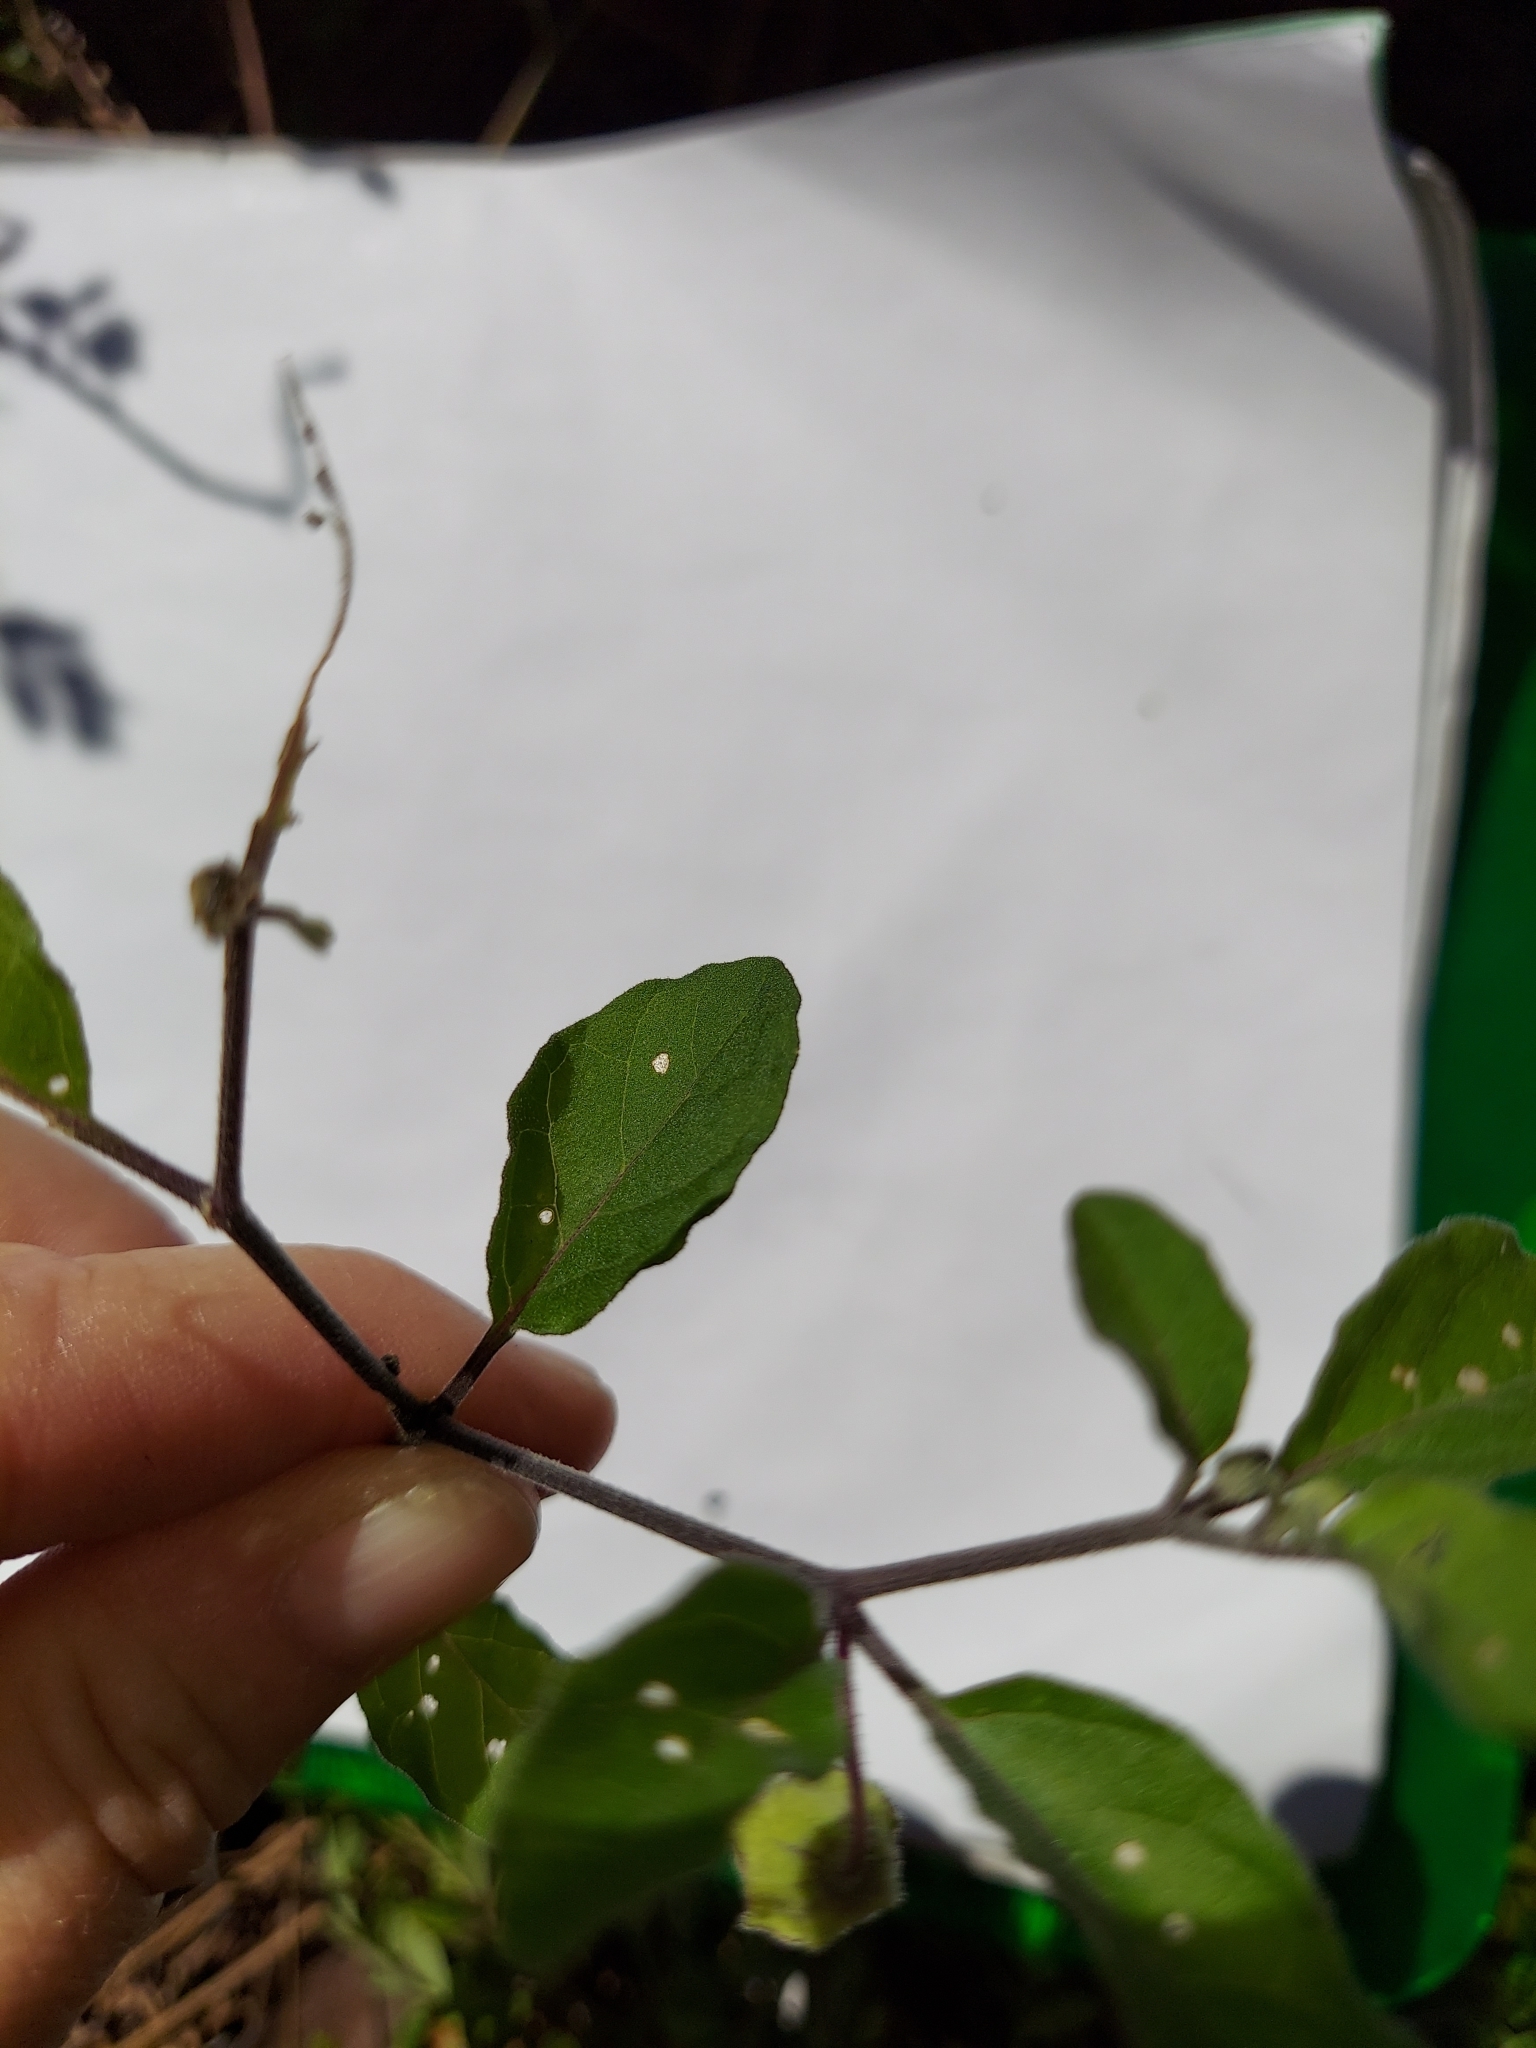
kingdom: Plantae
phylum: Tracheophyta
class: Magnoliopsida
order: Solanales
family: Solanaceae
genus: Physalis
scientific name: Physalis walteri
